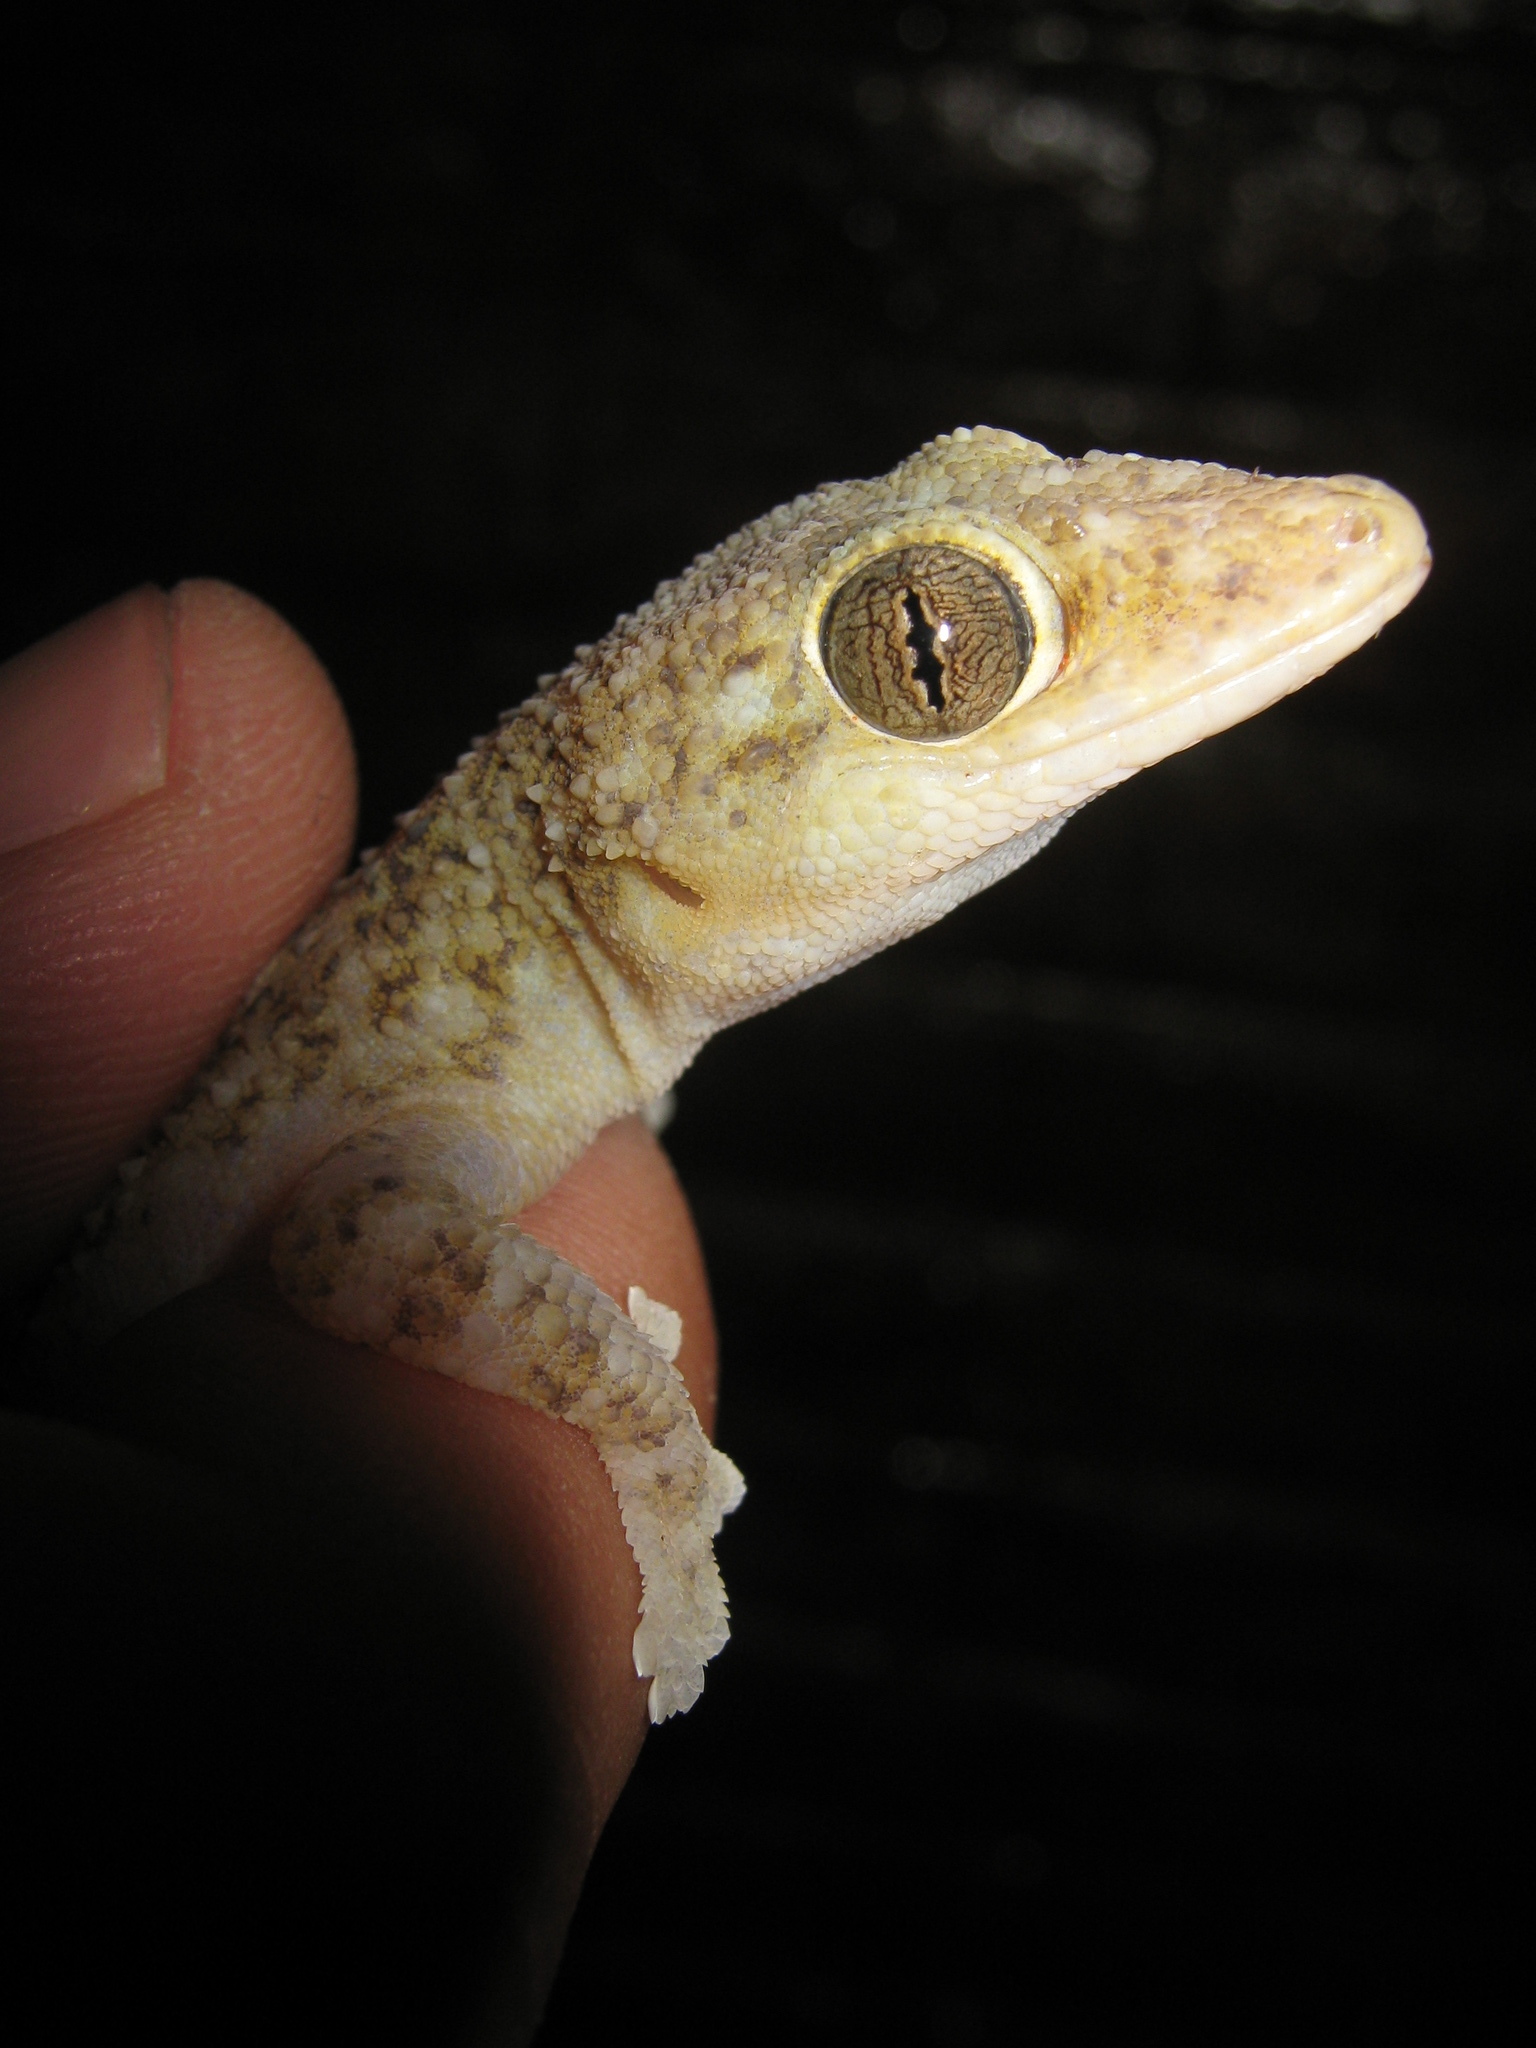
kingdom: Animalia
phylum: Chordata
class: Squamata
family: Phyllodactylidae
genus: Phyllodactylus
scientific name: Phyllodactylus lanei
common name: Lane's leaf-toed gecko
